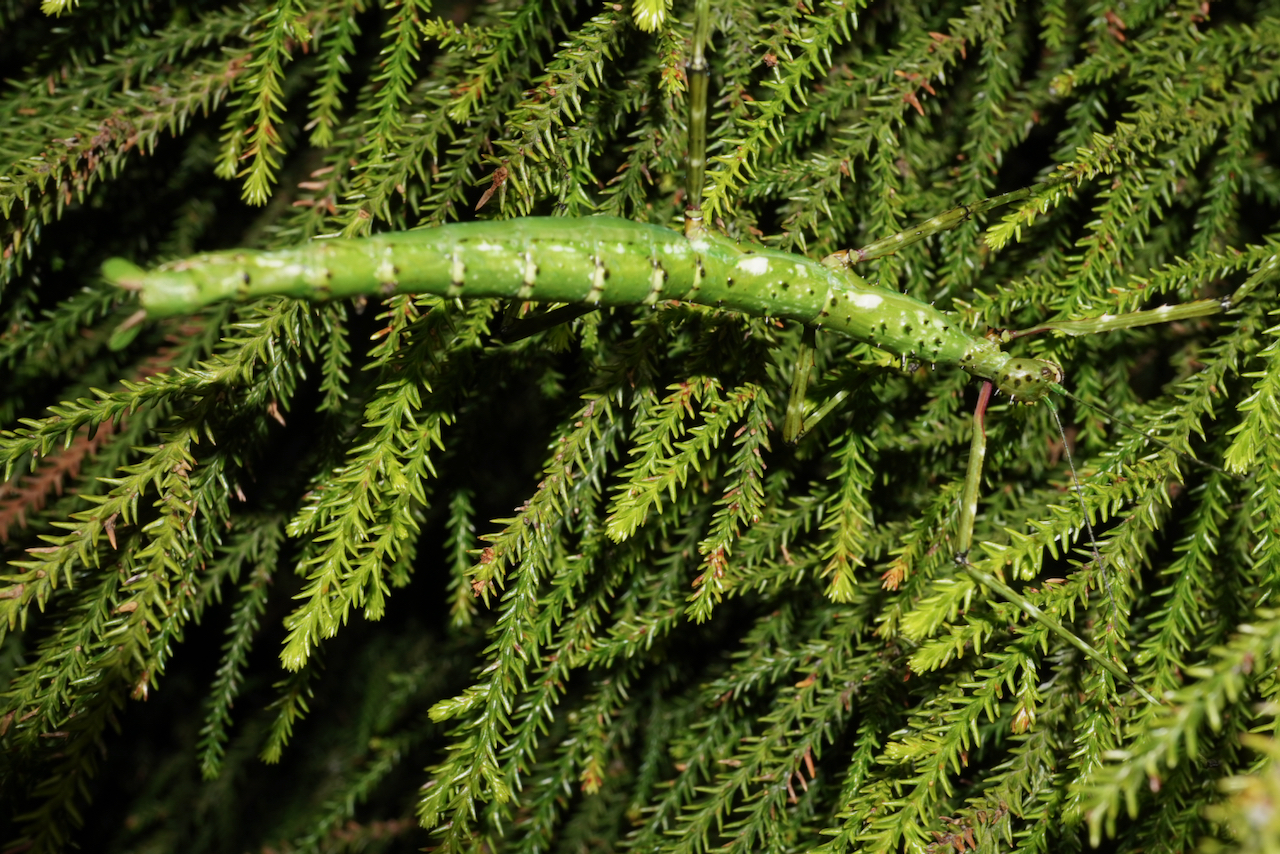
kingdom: Animalia
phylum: Arthropoda
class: Insecta
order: Phasmida
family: Phasmatidae
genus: Acanthoxyla
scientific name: Acanthoxyla prasina
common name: Black-spined stick insect
